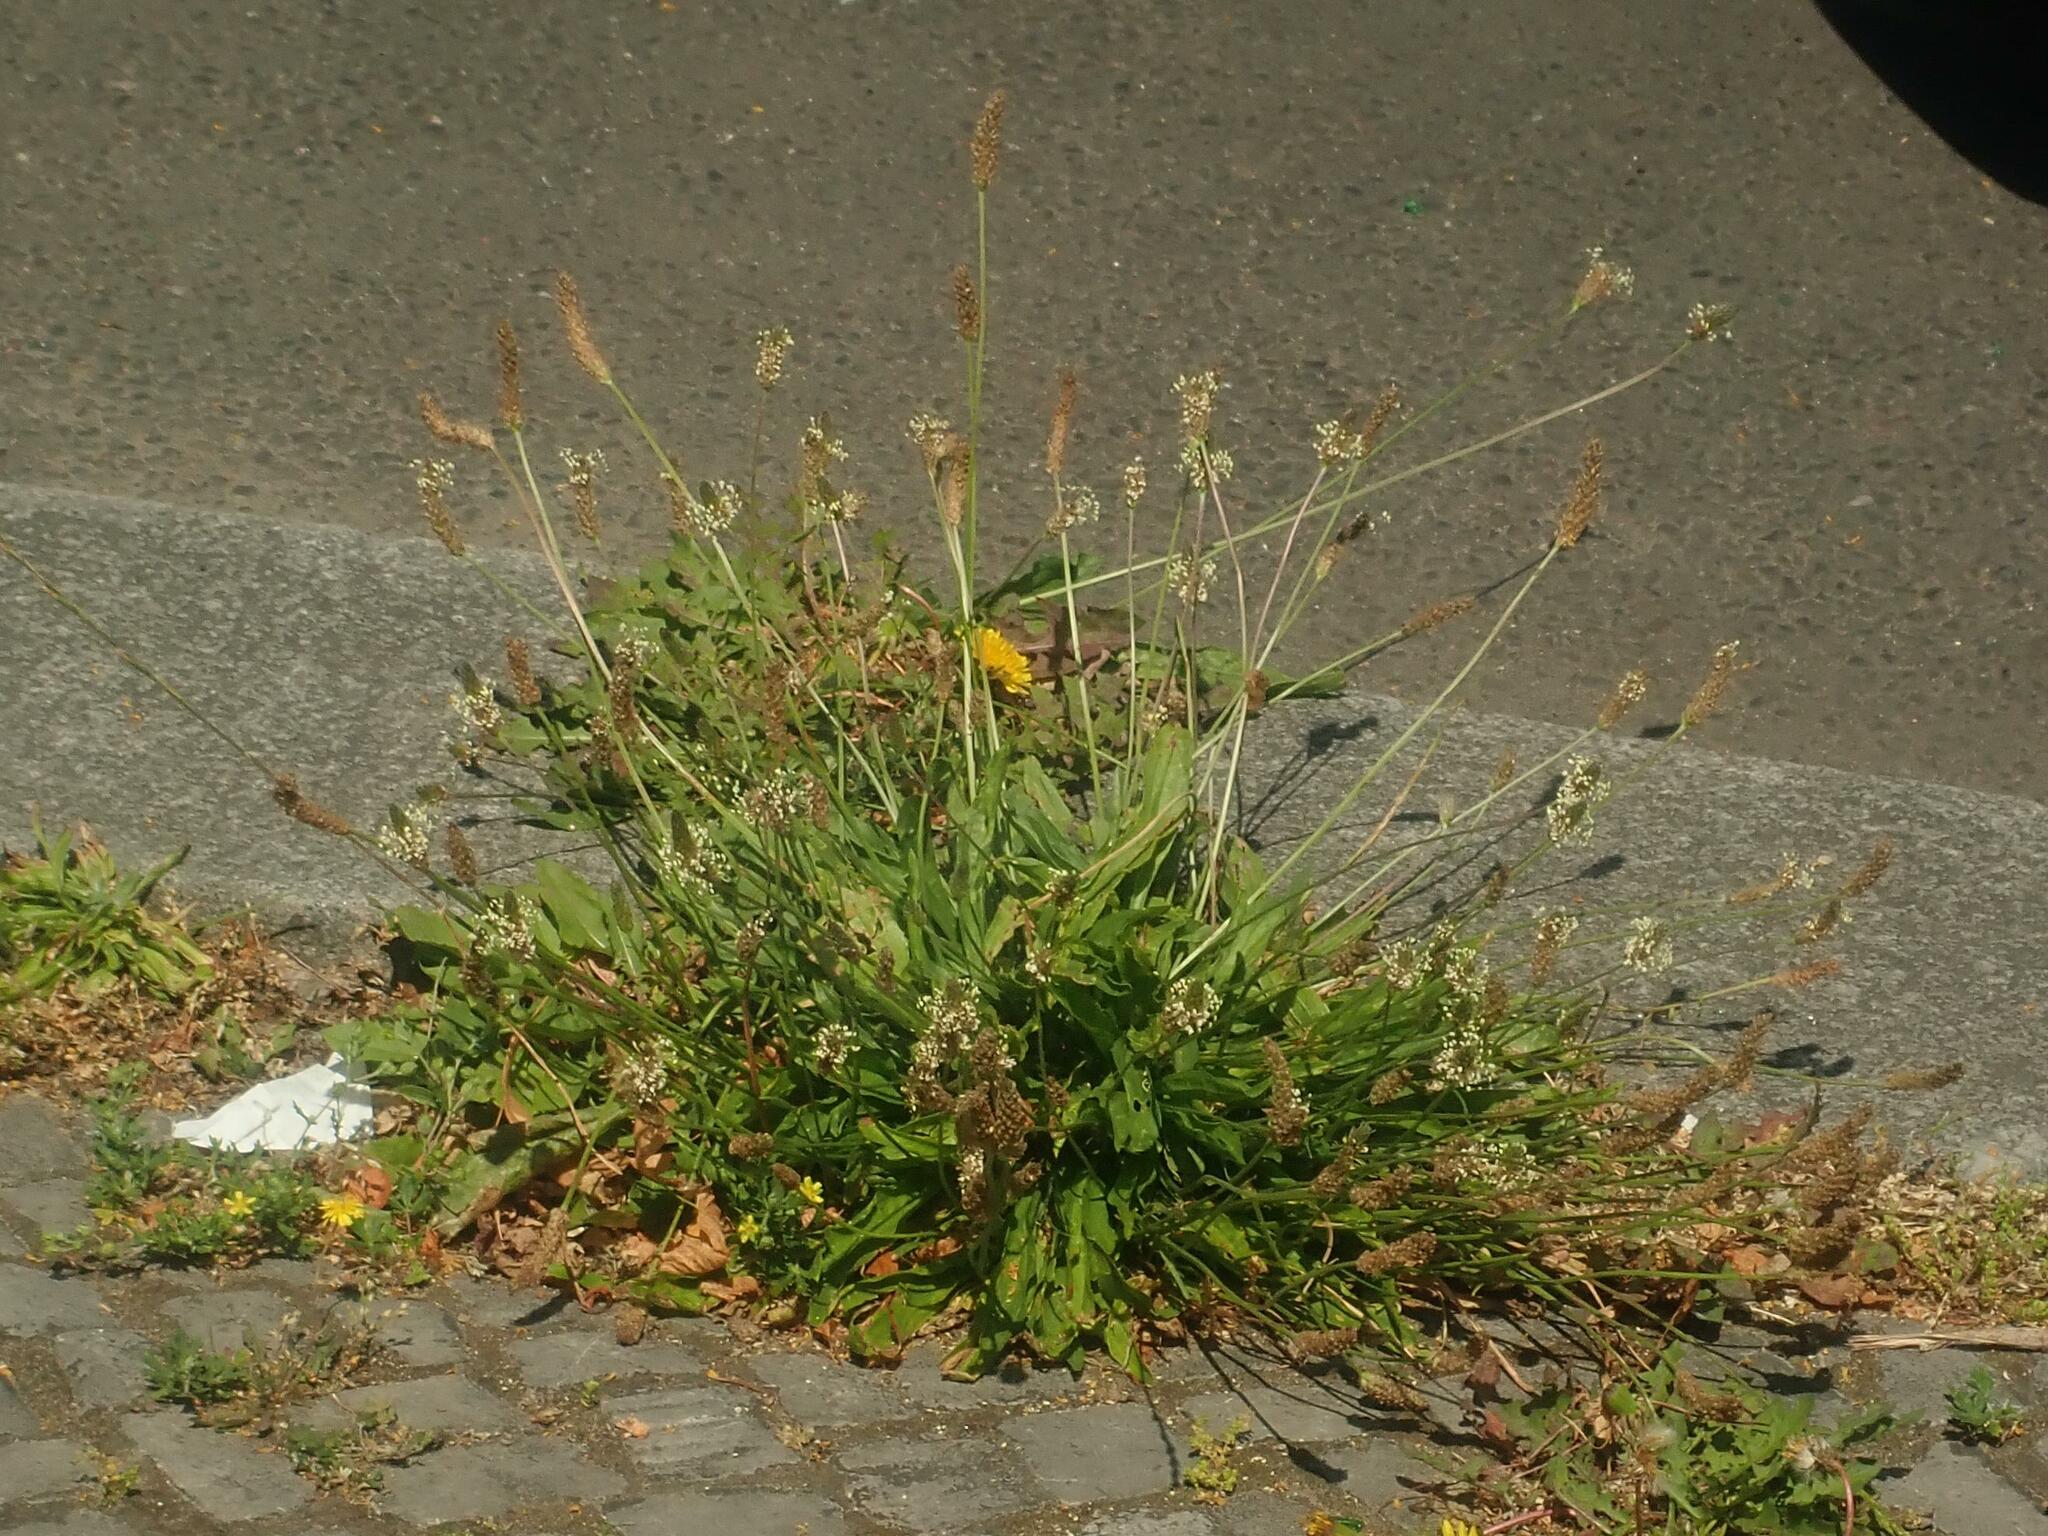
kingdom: Plantae
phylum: Tracheophyta
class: Magnoliopsida
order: Lamiales
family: Plantaginaceae
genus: Plantago
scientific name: Plantago lanceolata
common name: Ribwort plantain
